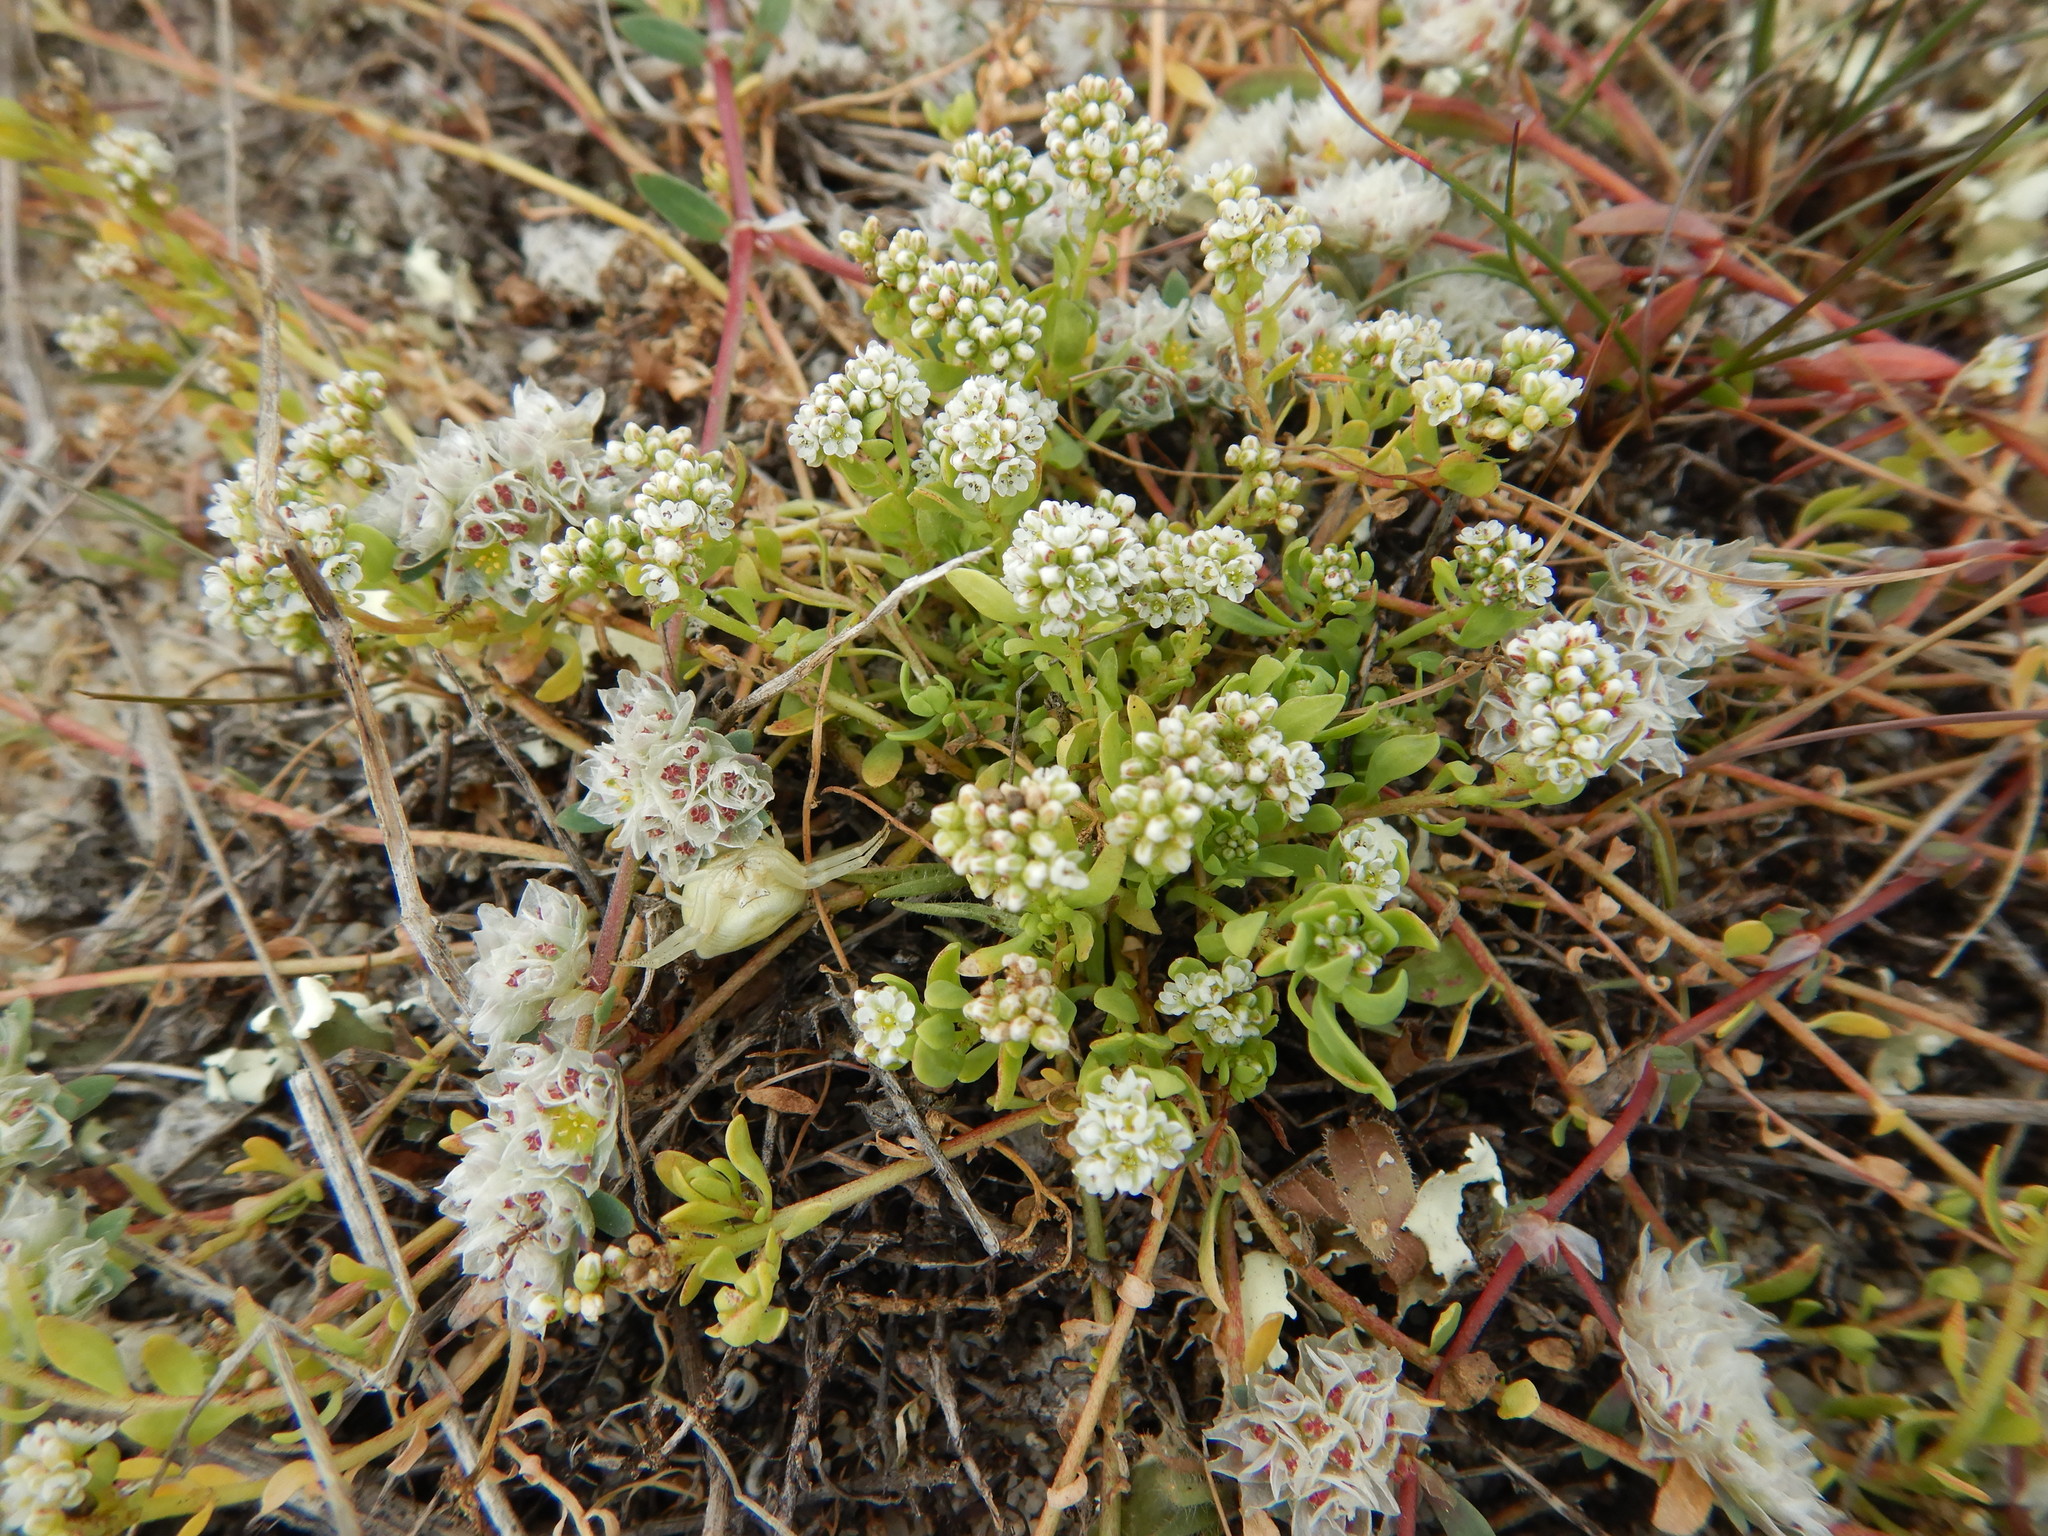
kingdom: Plantae
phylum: Tracheophyta
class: Magnoliopsida
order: Caryophyllales
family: Caryophyllaceae
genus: Corrigiola
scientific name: Corrigiola litoralis
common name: Strapwort
